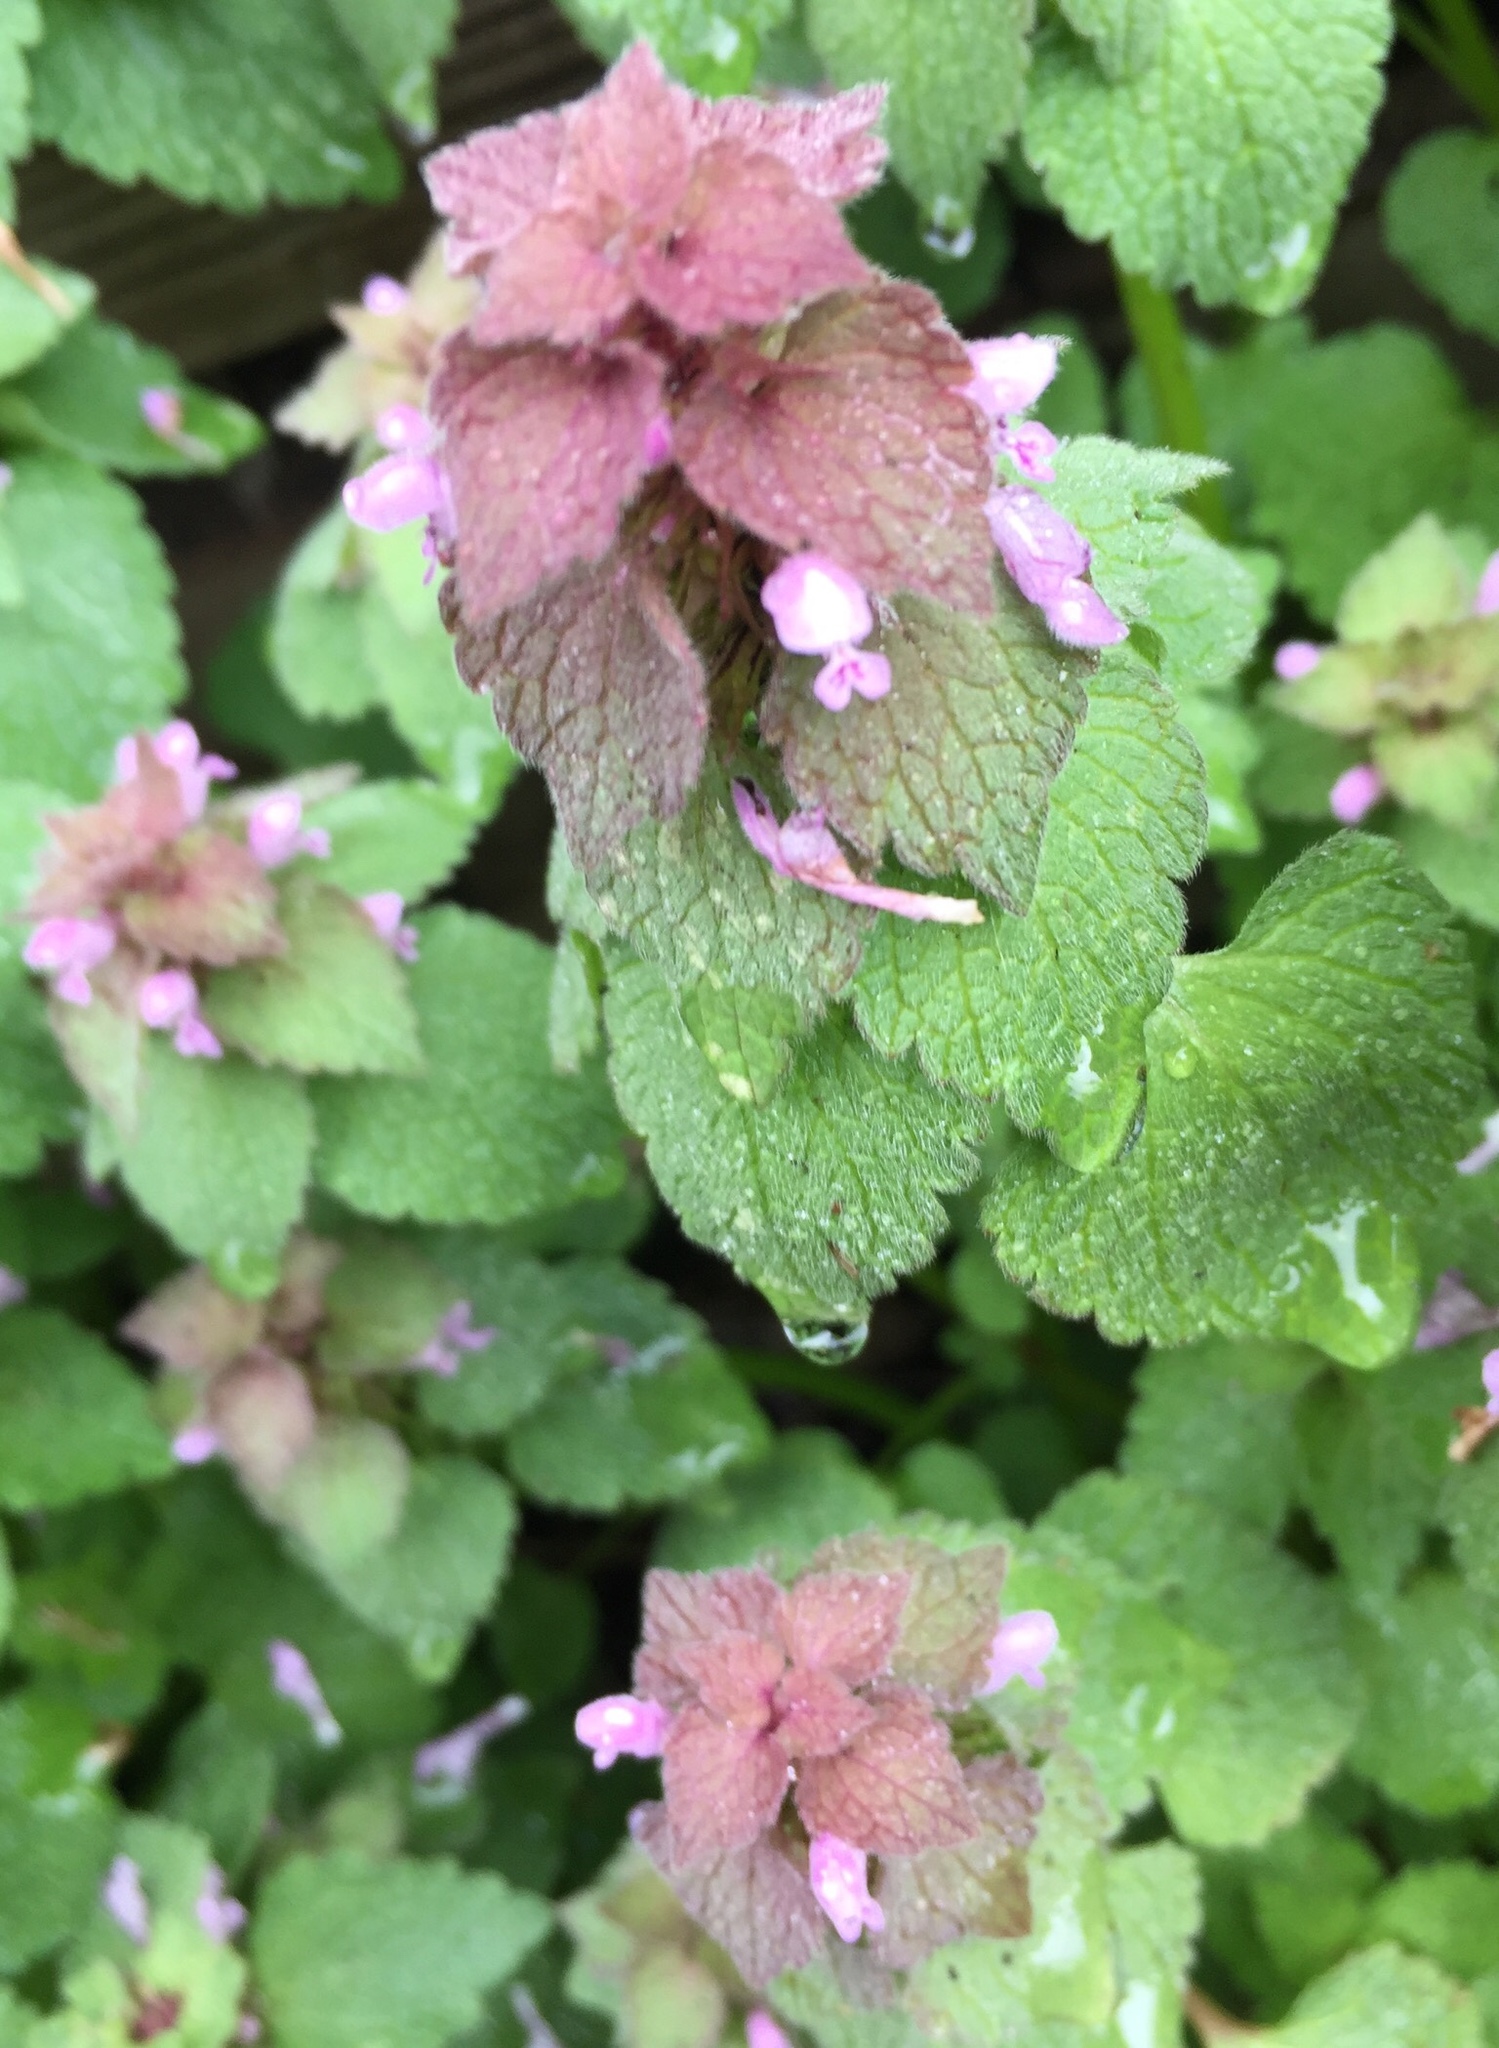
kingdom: Plantae
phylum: Tracheophyta
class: Magnoliopsida
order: Lamiales
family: Lamiaceae
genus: Lamium
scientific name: Lamium purpureum
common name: Red dead-nettle
